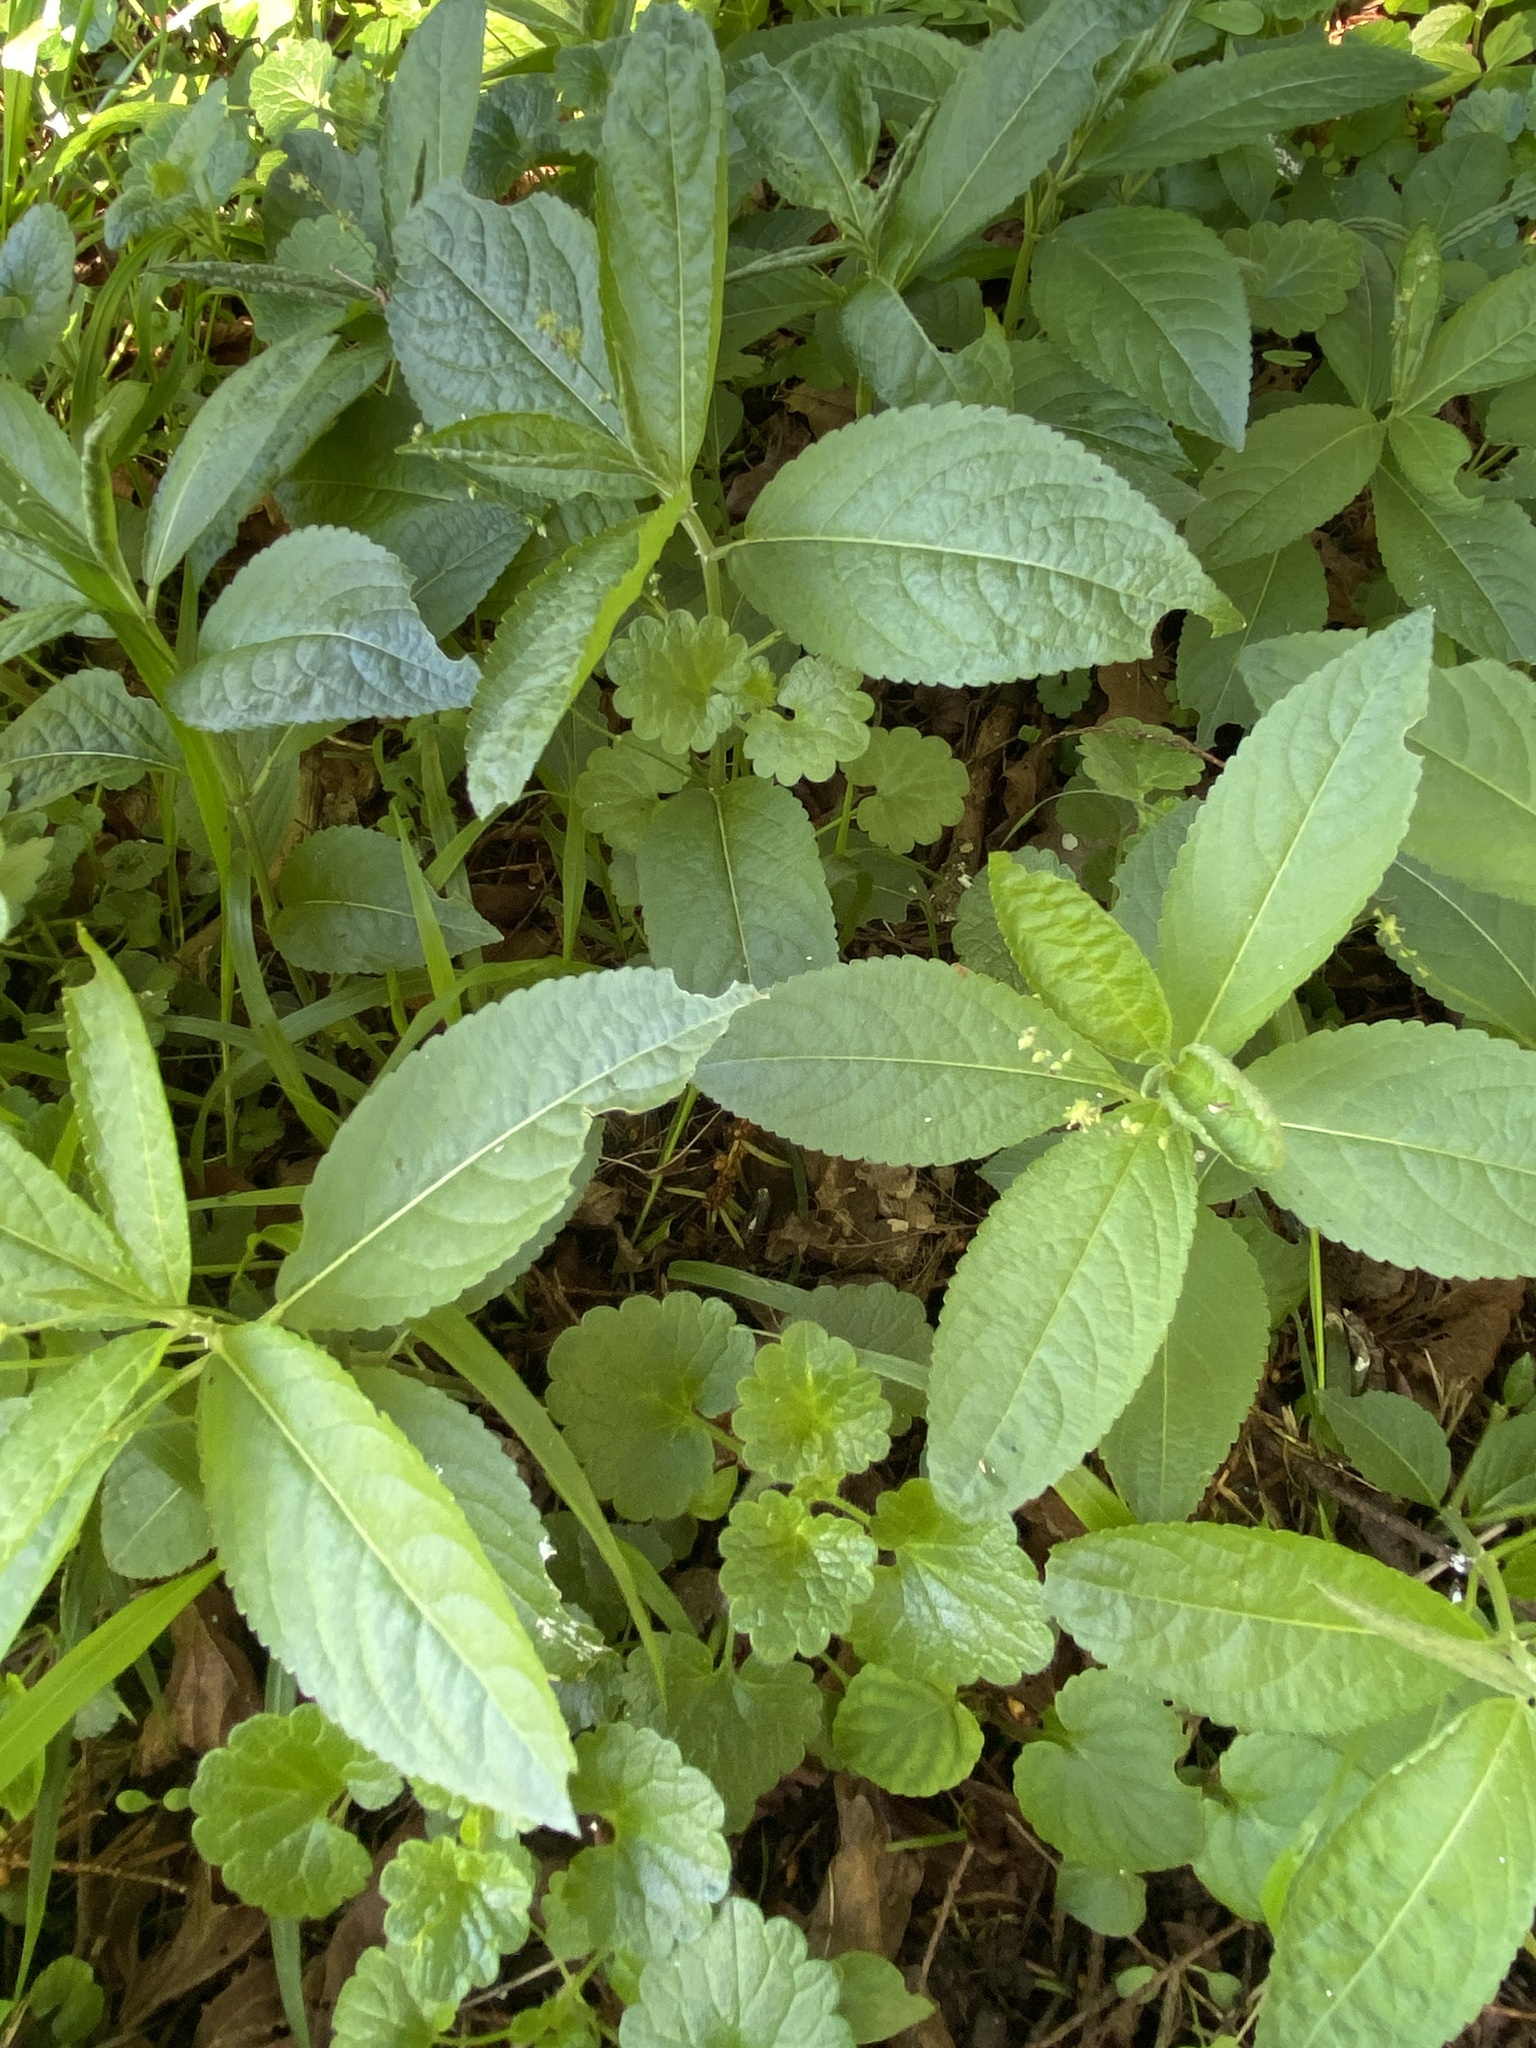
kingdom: Plantae
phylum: Tracheophyta
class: Magnoliopsida
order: Malpighiales
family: Euphorbiaceae
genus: Mercurialis
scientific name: Mercurialis perennis
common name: Dog mercury
